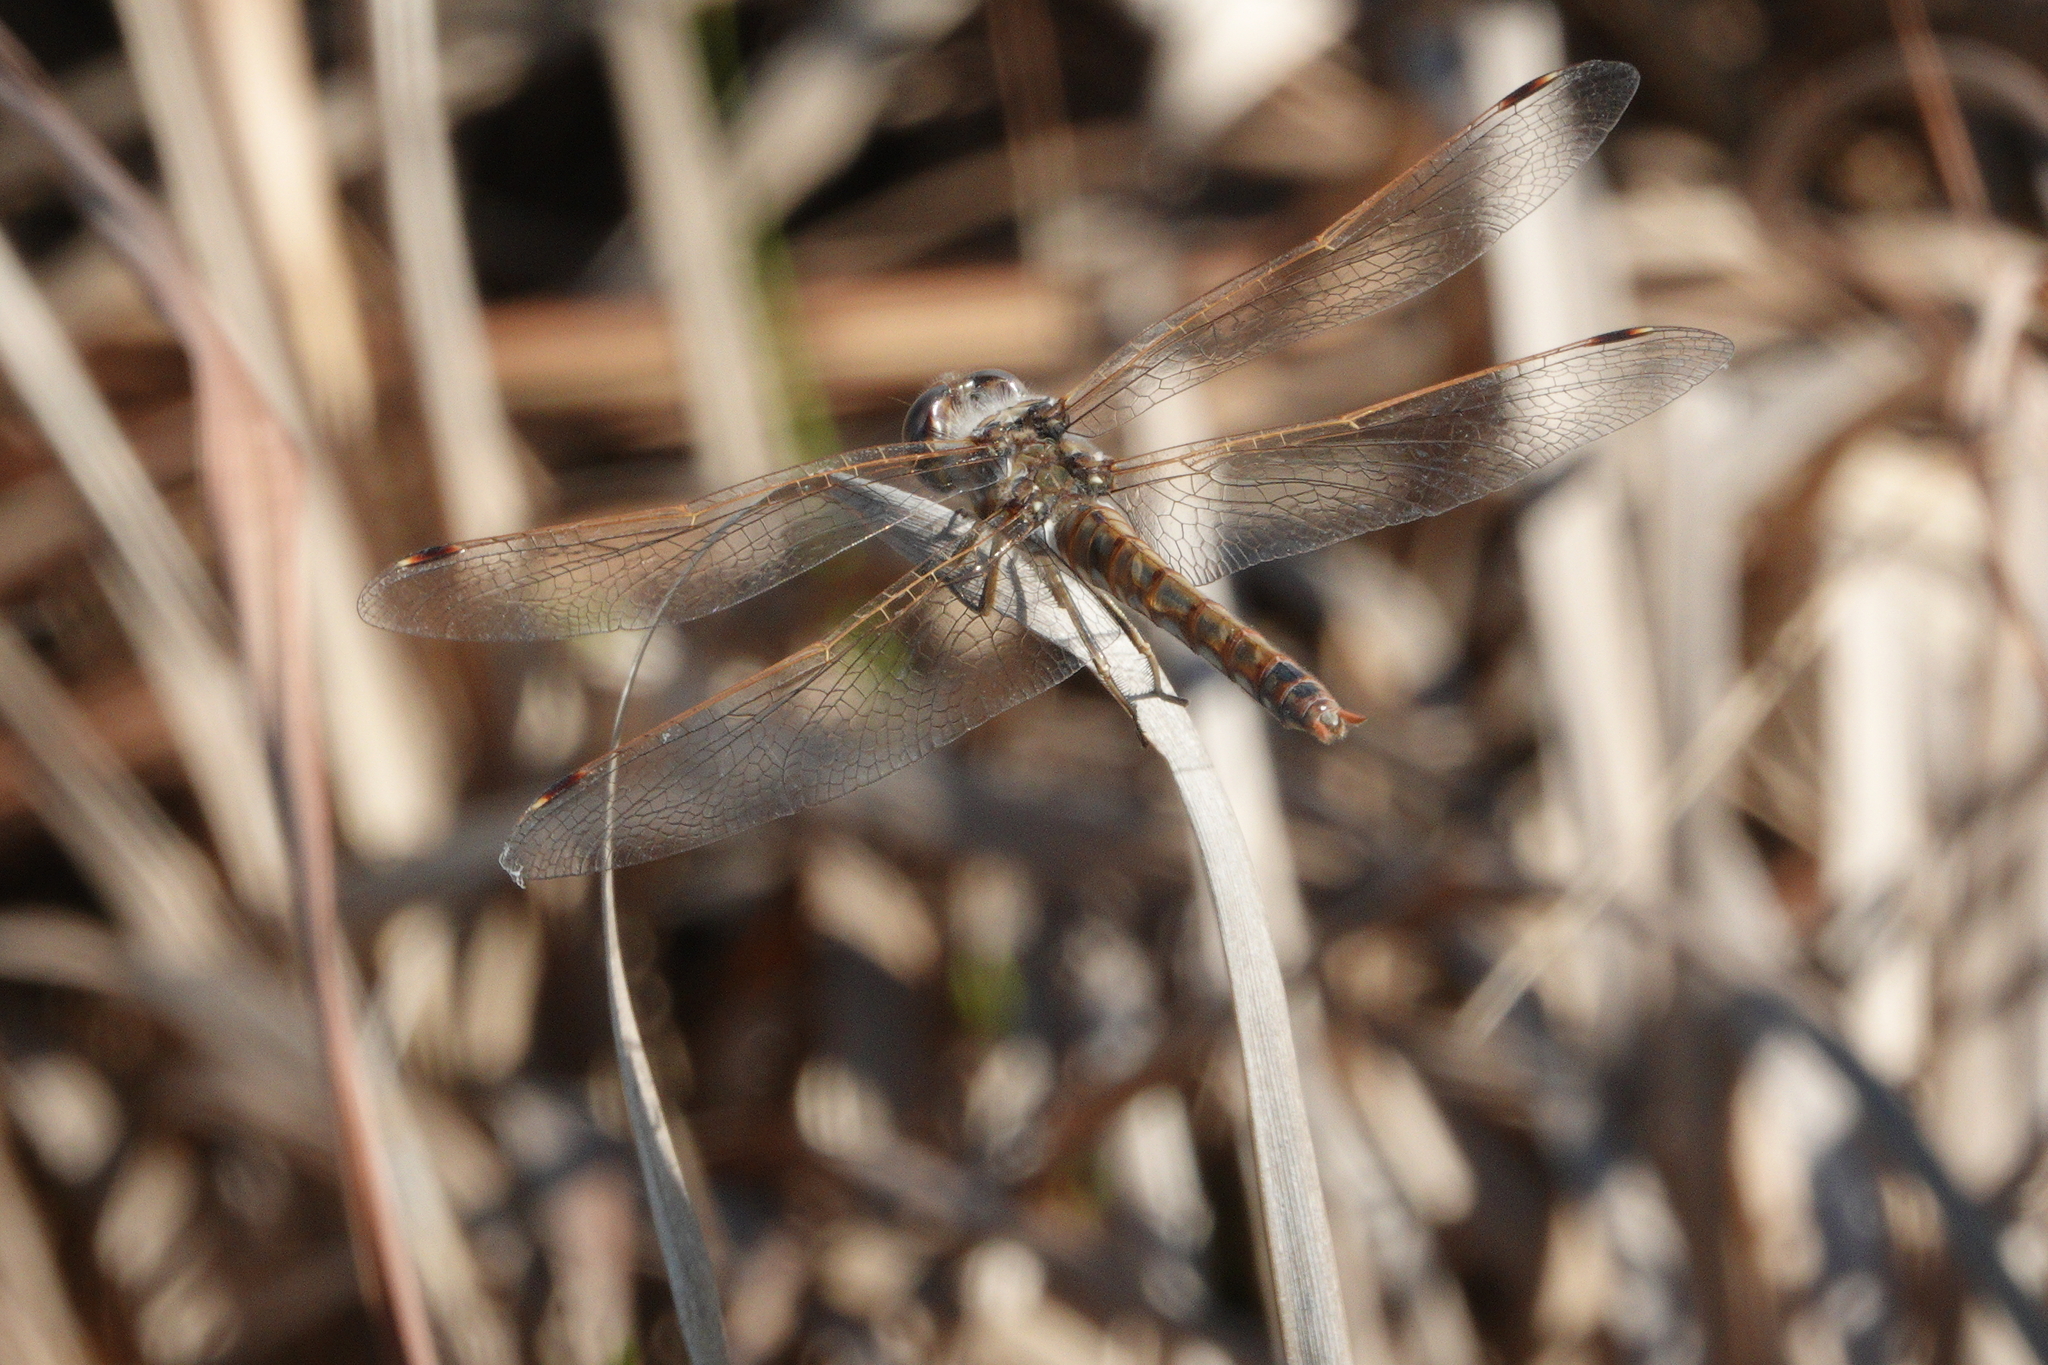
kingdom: Animalia
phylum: Arthropoda
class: Insecta
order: Odonata
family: Libellulidae
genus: Sympetrum
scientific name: Sympetrum corruptum
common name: Variegated meadowhawk
